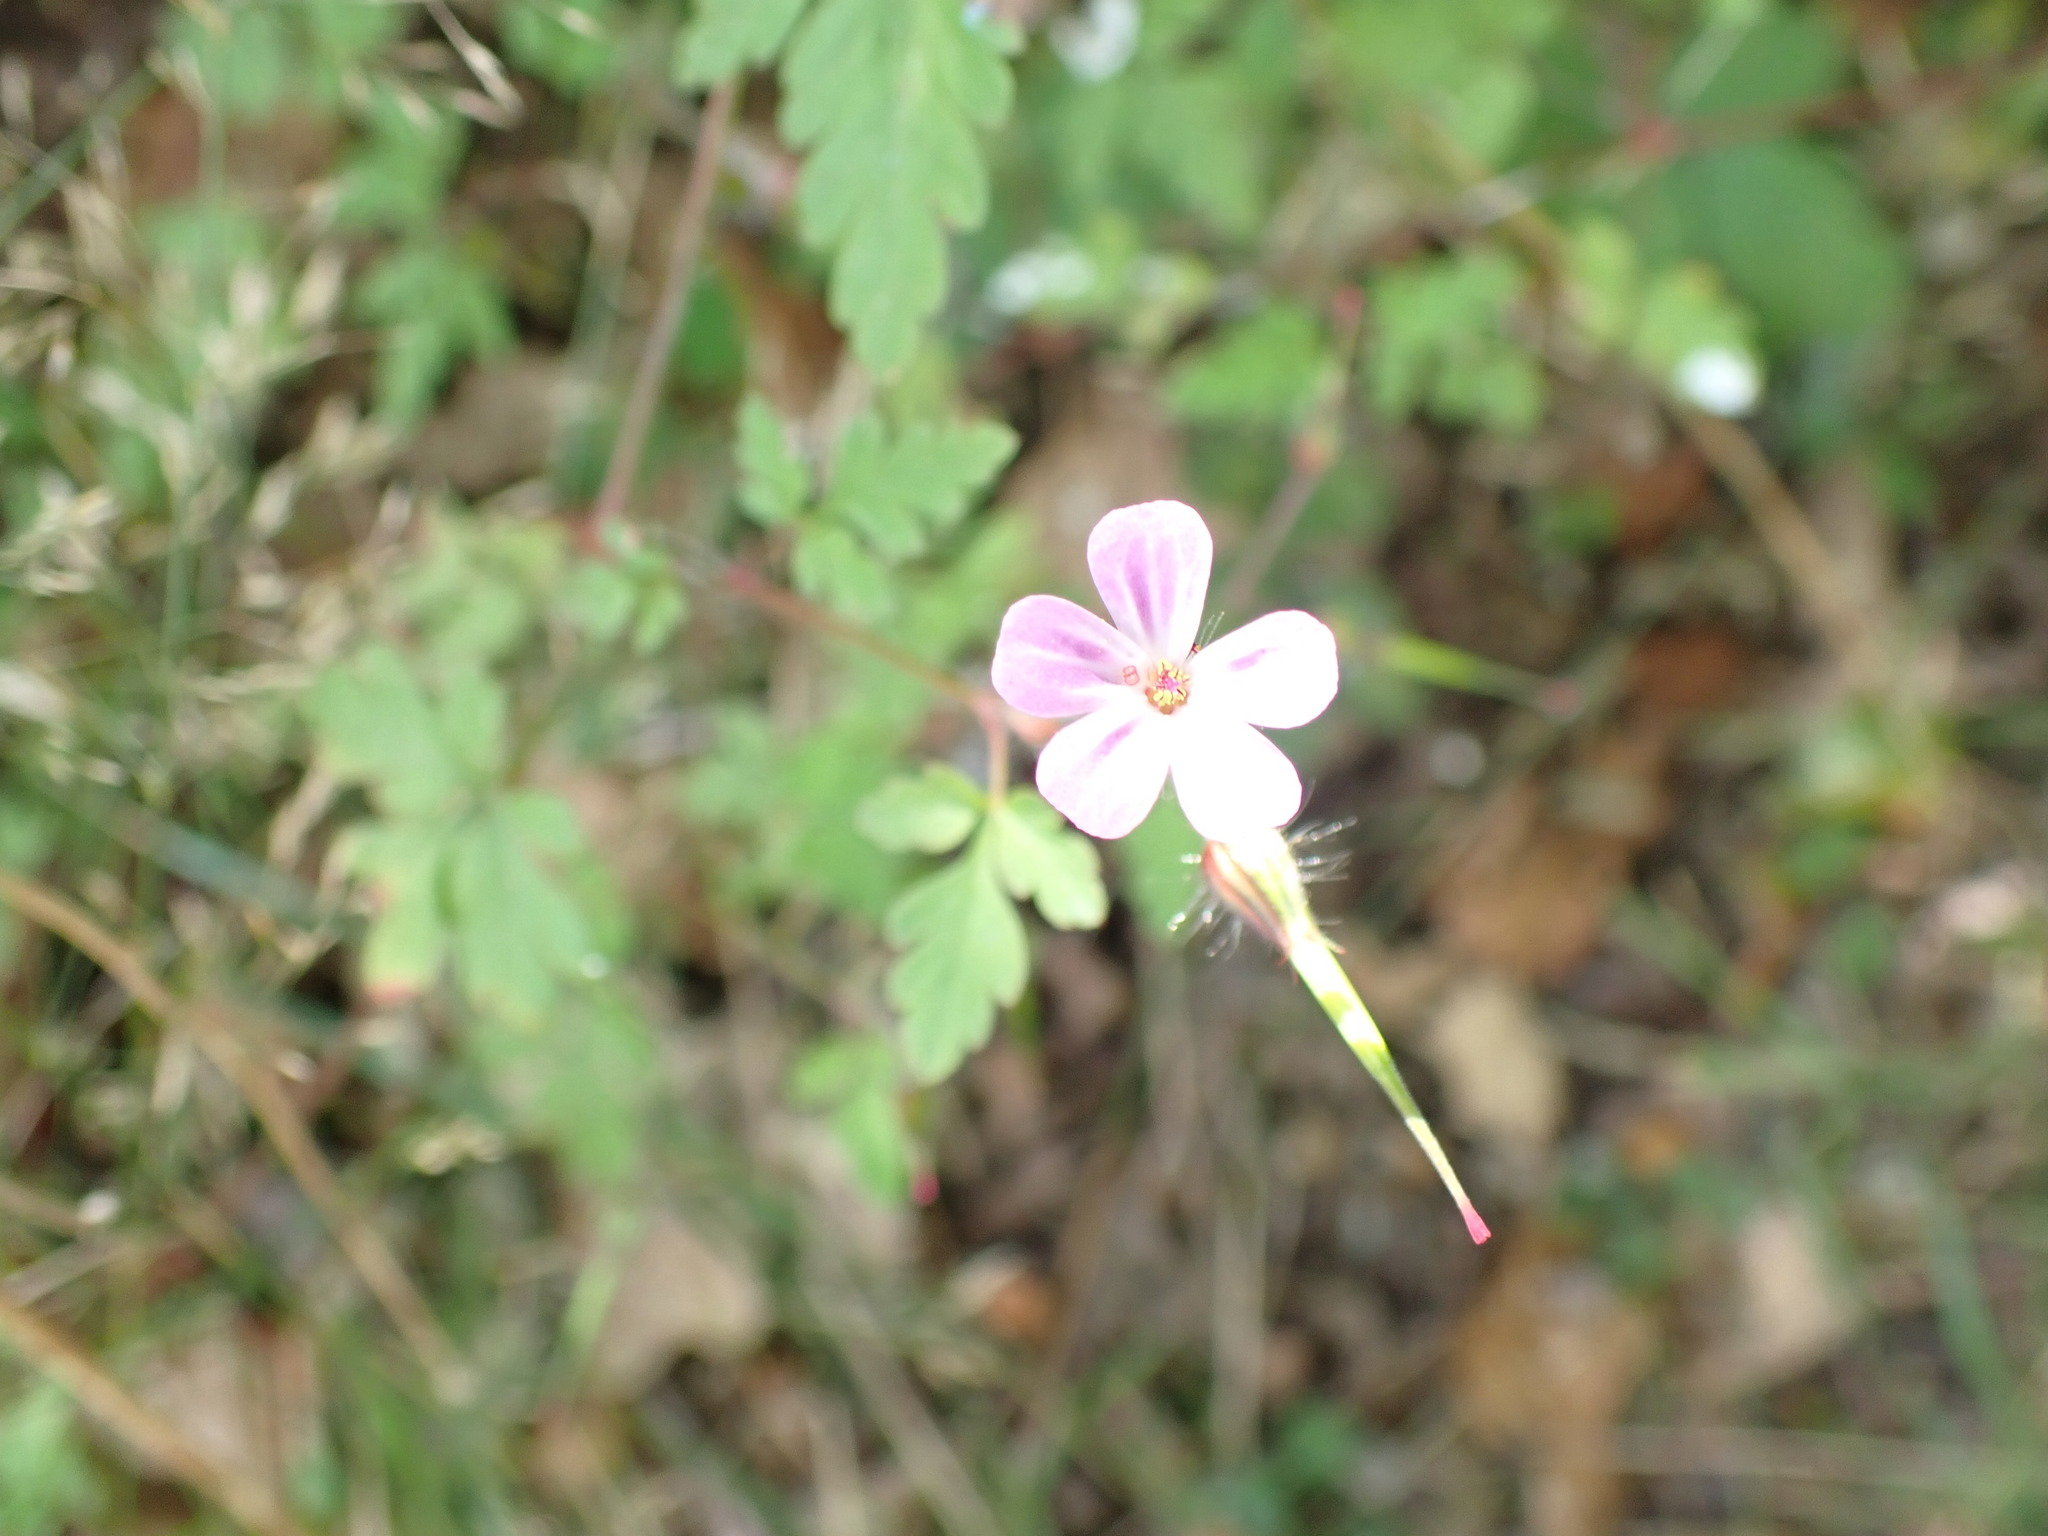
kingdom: Plantae
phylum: Tracheophyta
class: Magnoliopsida
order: Geraniales
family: Geraniaceae
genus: Geranium
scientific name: Geranium robertianum
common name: Herb-robert
